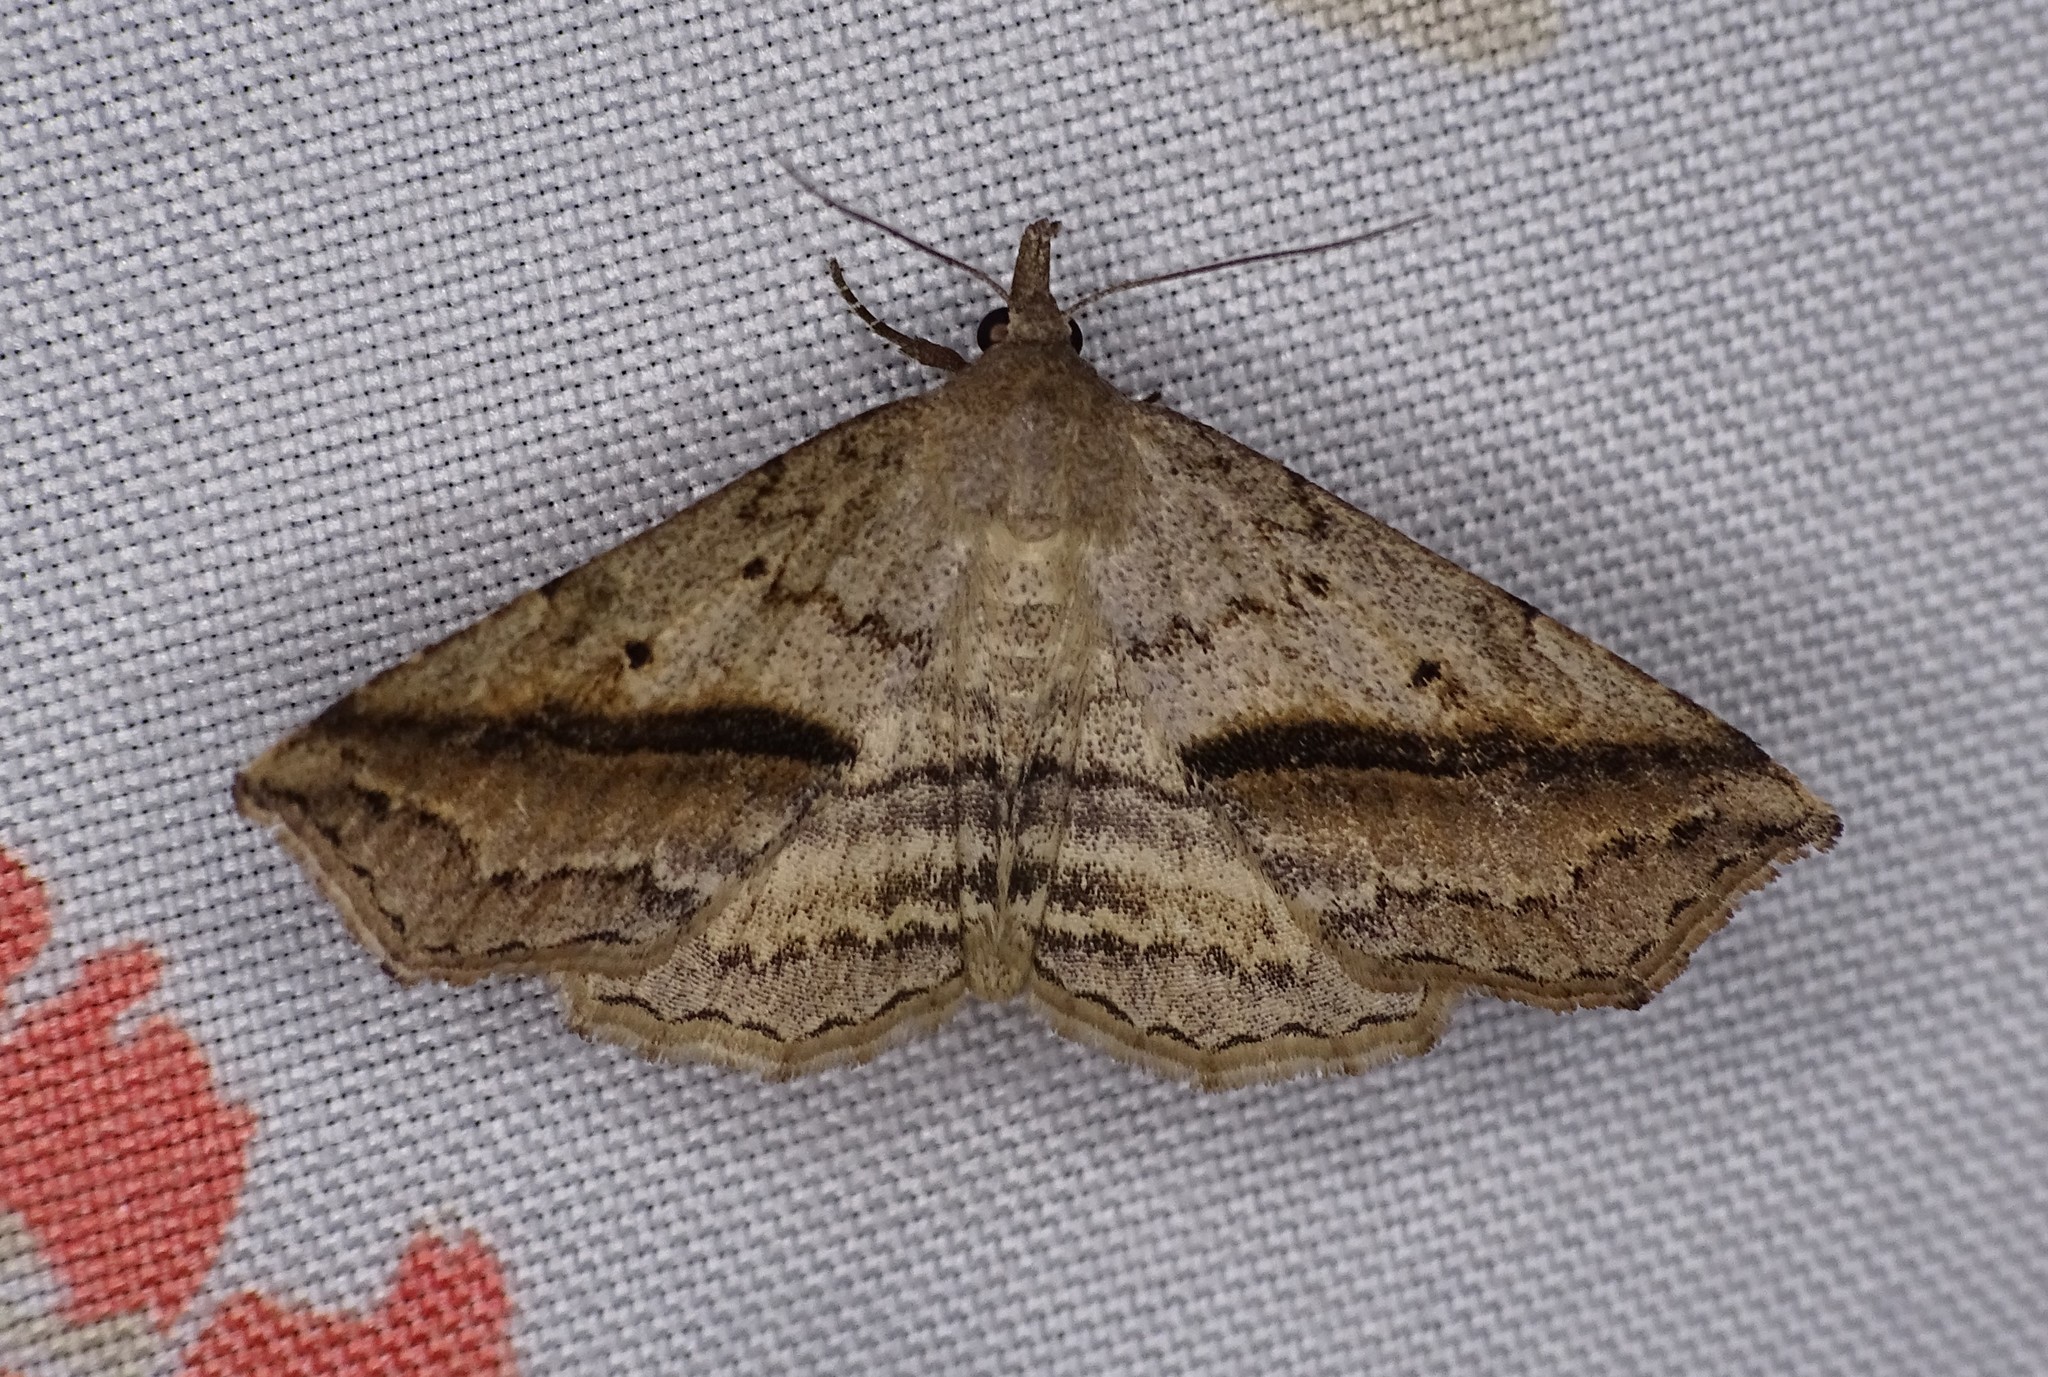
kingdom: Animalia
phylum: Arthropoda
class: Insecta
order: Lepidoptera
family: Erebidae
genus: Spargaloma
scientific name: Spargaloma perditalis
